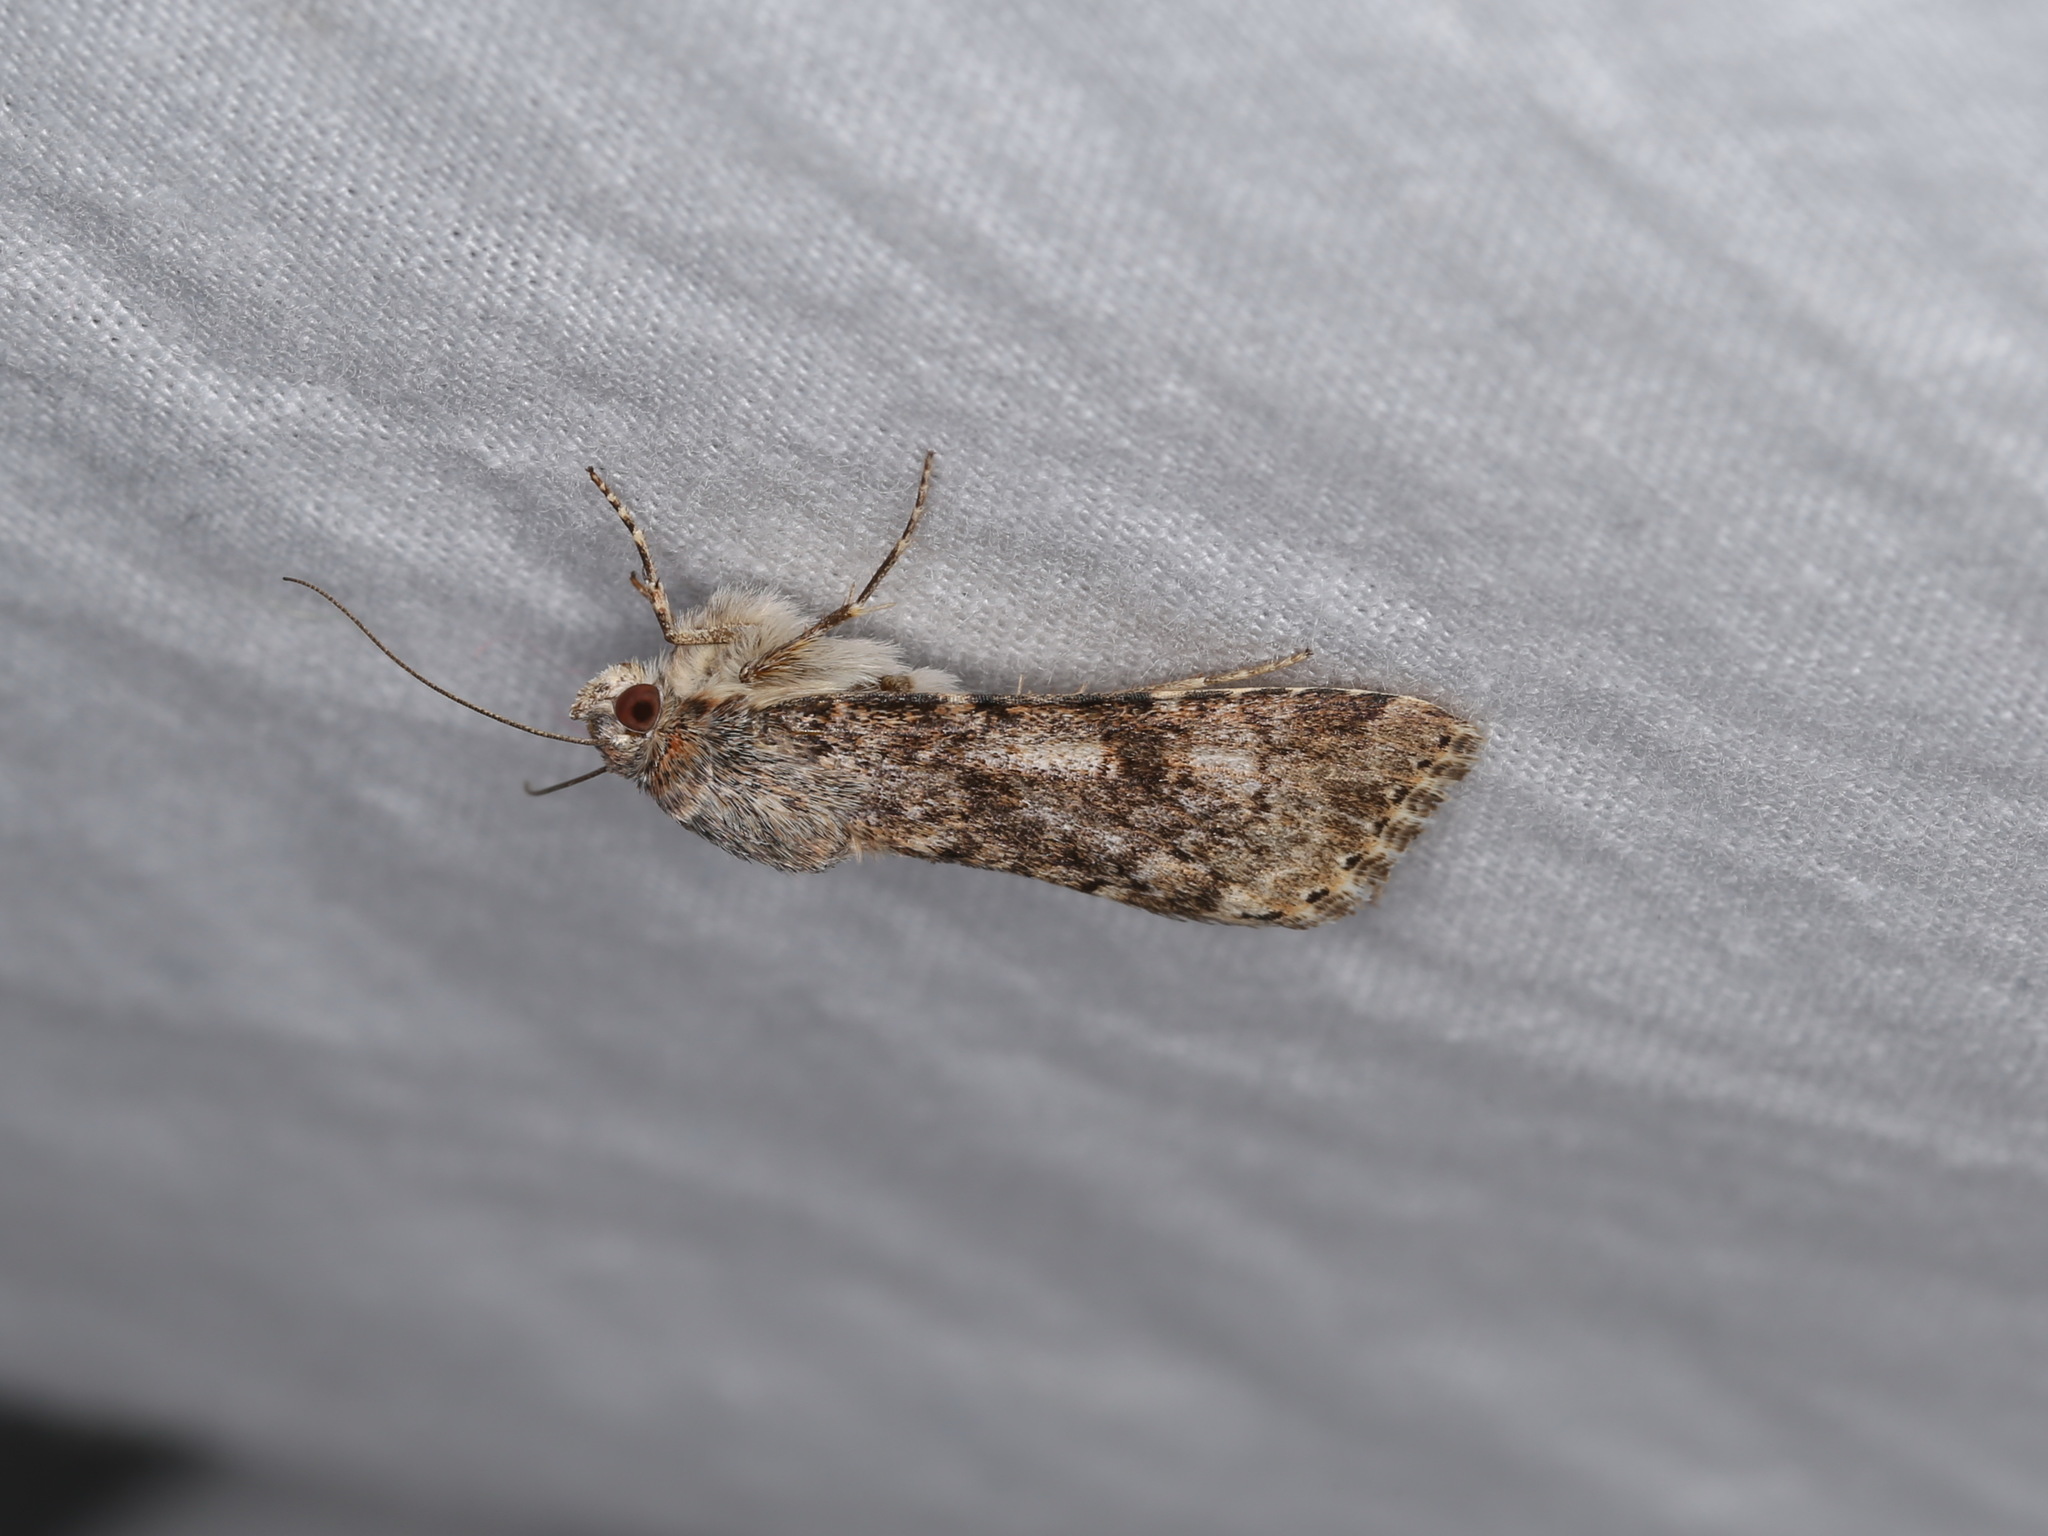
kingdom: Animalia
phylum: Arthropoda
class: Insecta
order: Lepidoptera
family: Noctuidae
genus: Heliothis
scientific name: Heliothis punctifera
